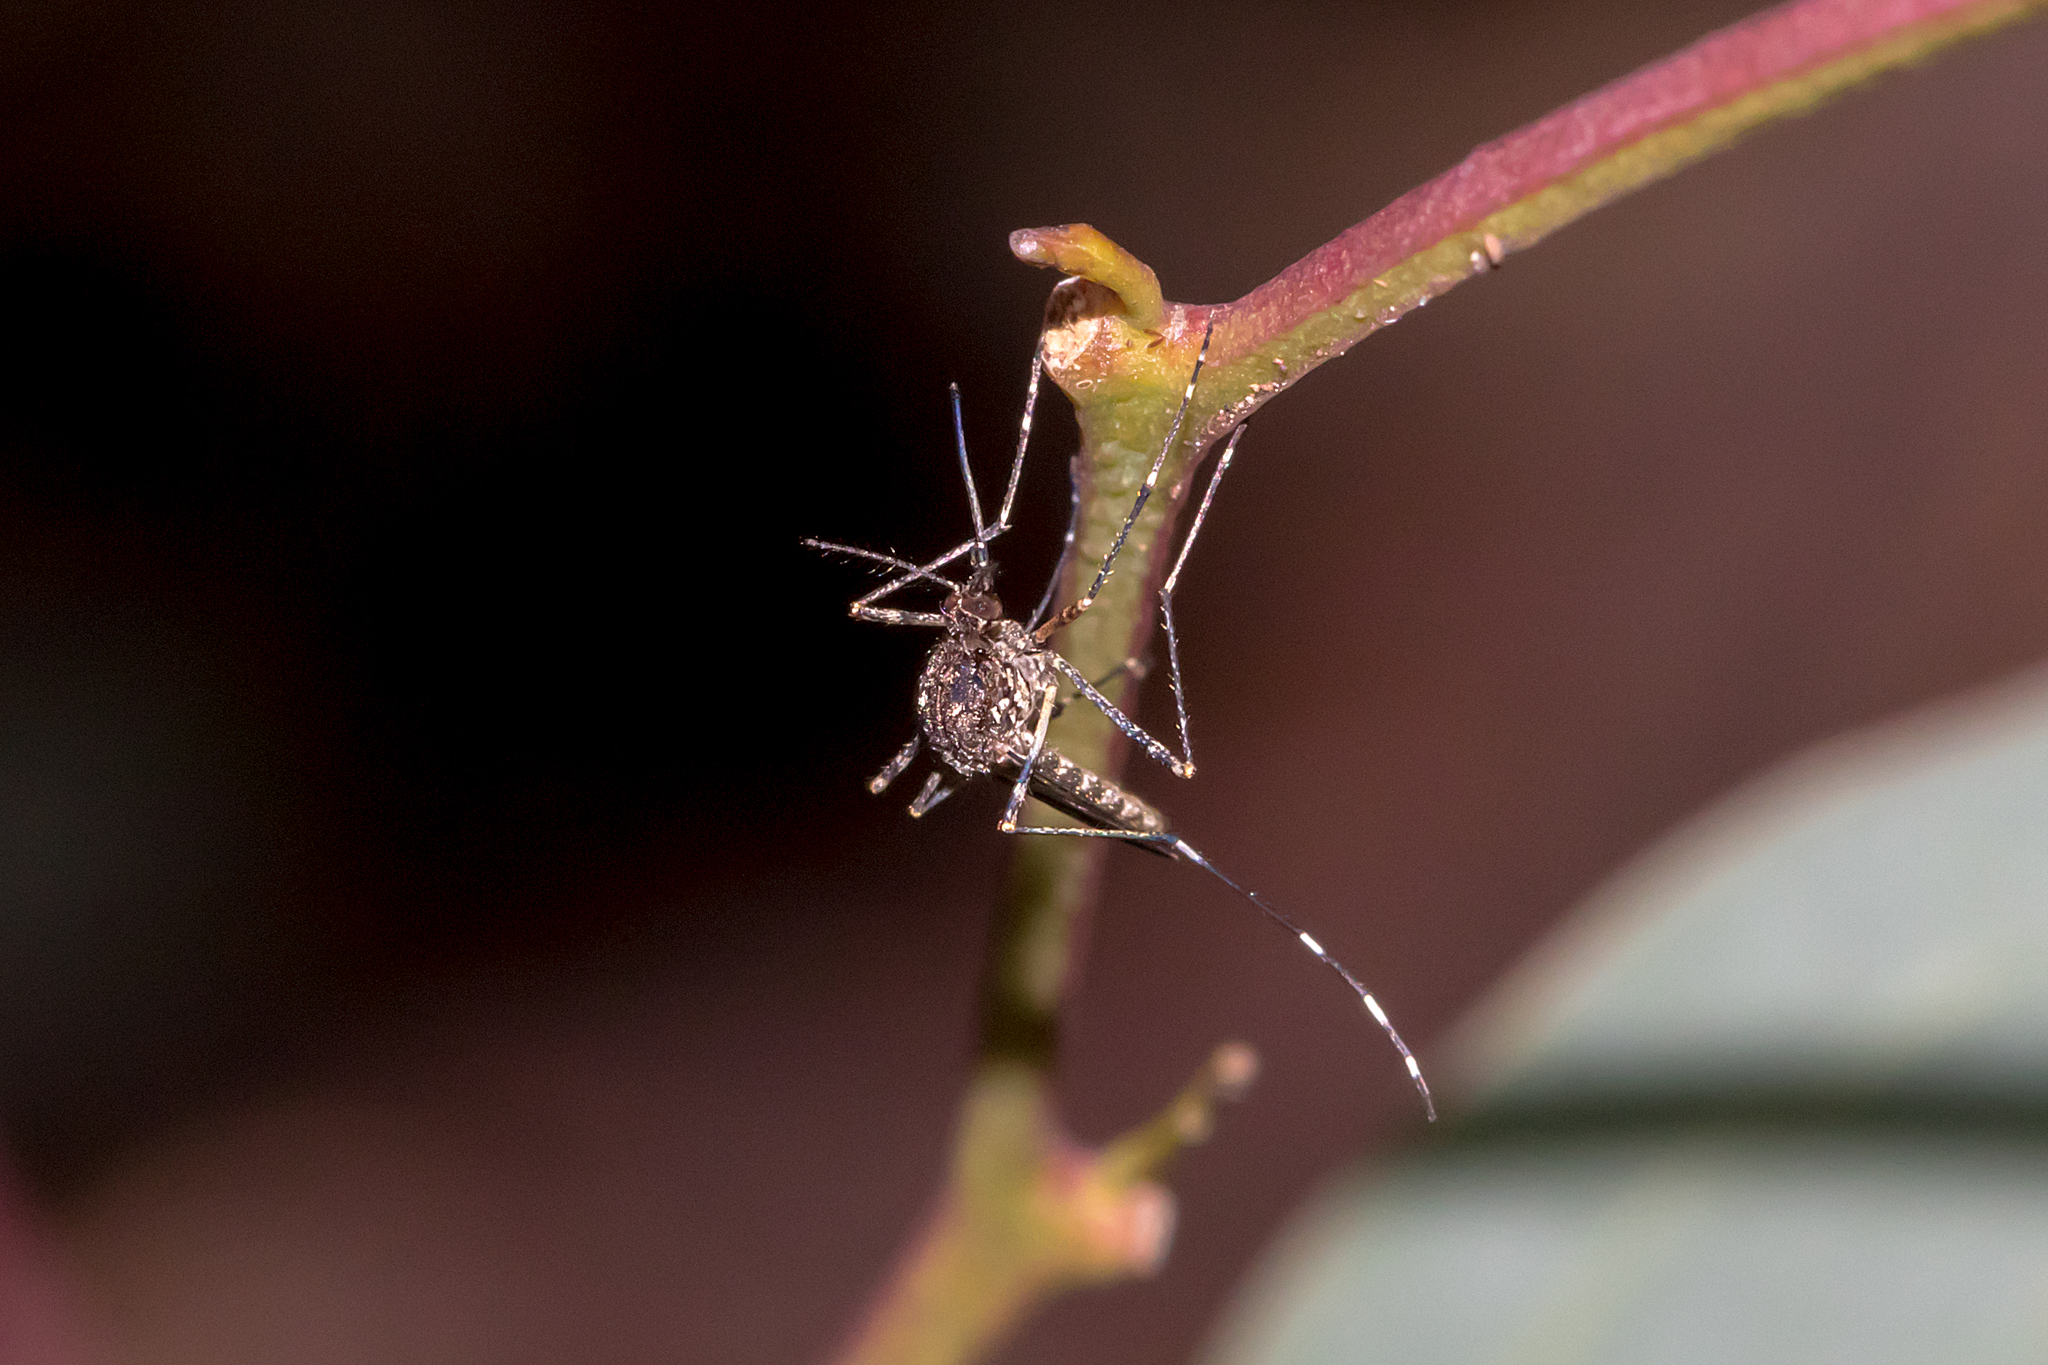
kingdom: Animalia
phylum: Arthropoda
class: Insecta
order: Diptera
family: Culicidae
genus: Aedes
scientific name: Aedes alboannulatus
